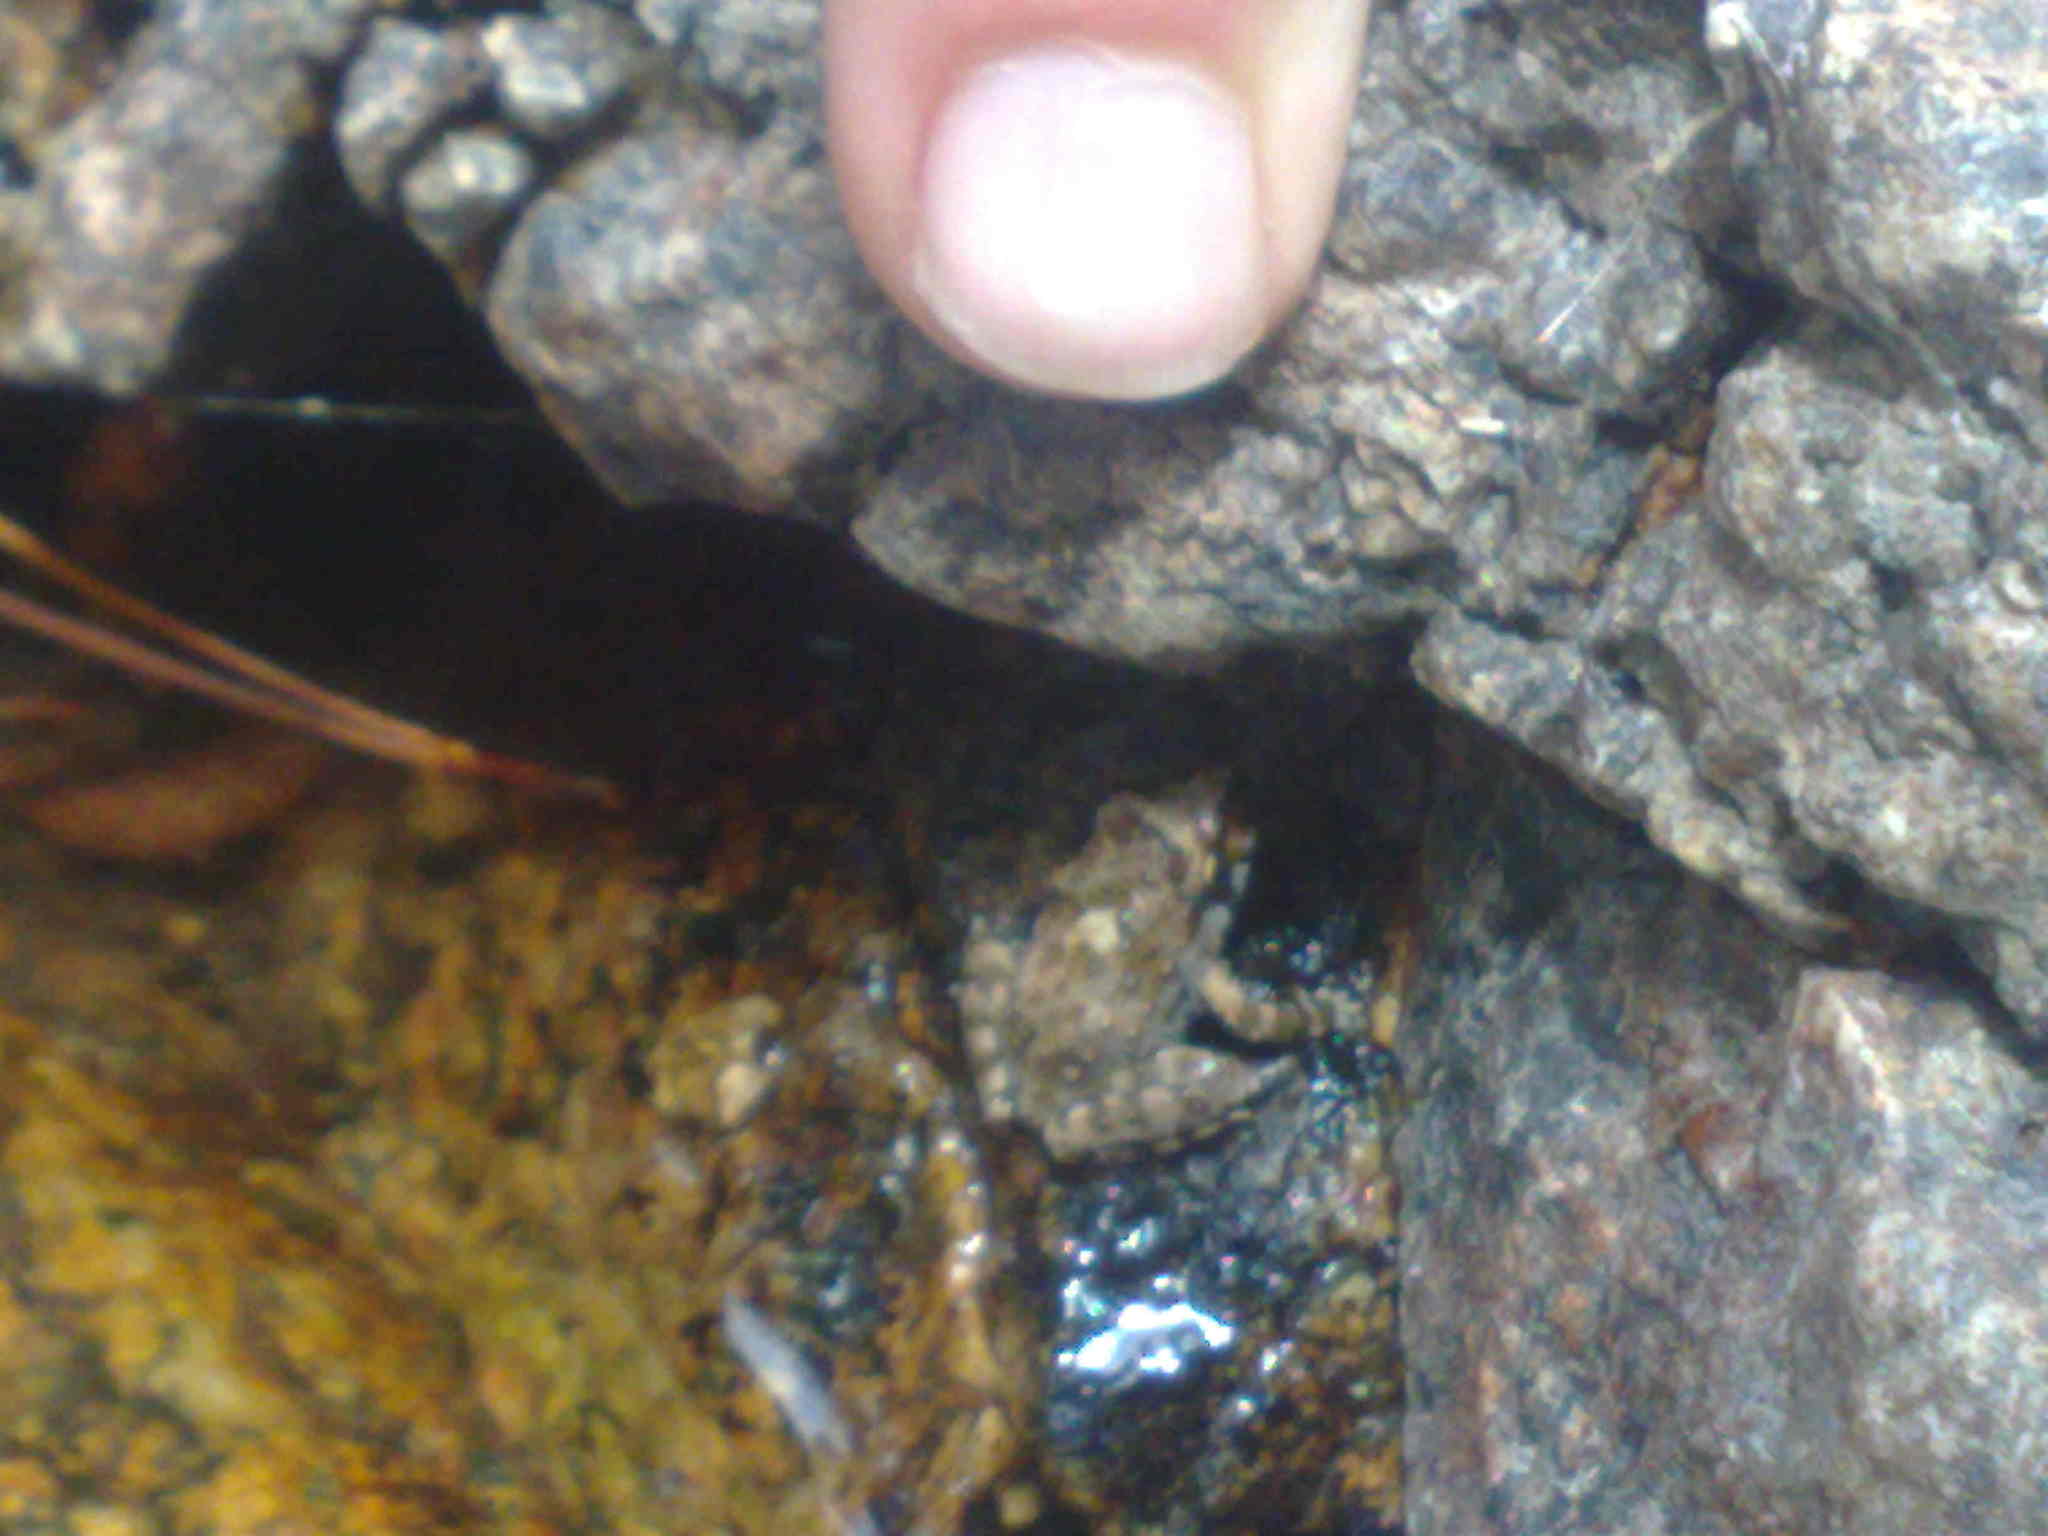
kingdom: Animalia
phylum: Chordata
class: Amphibia
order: Anura
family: Alytidae
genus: Discoglossus
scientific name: Discoglossus montalentii
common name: Corsica painted frog
